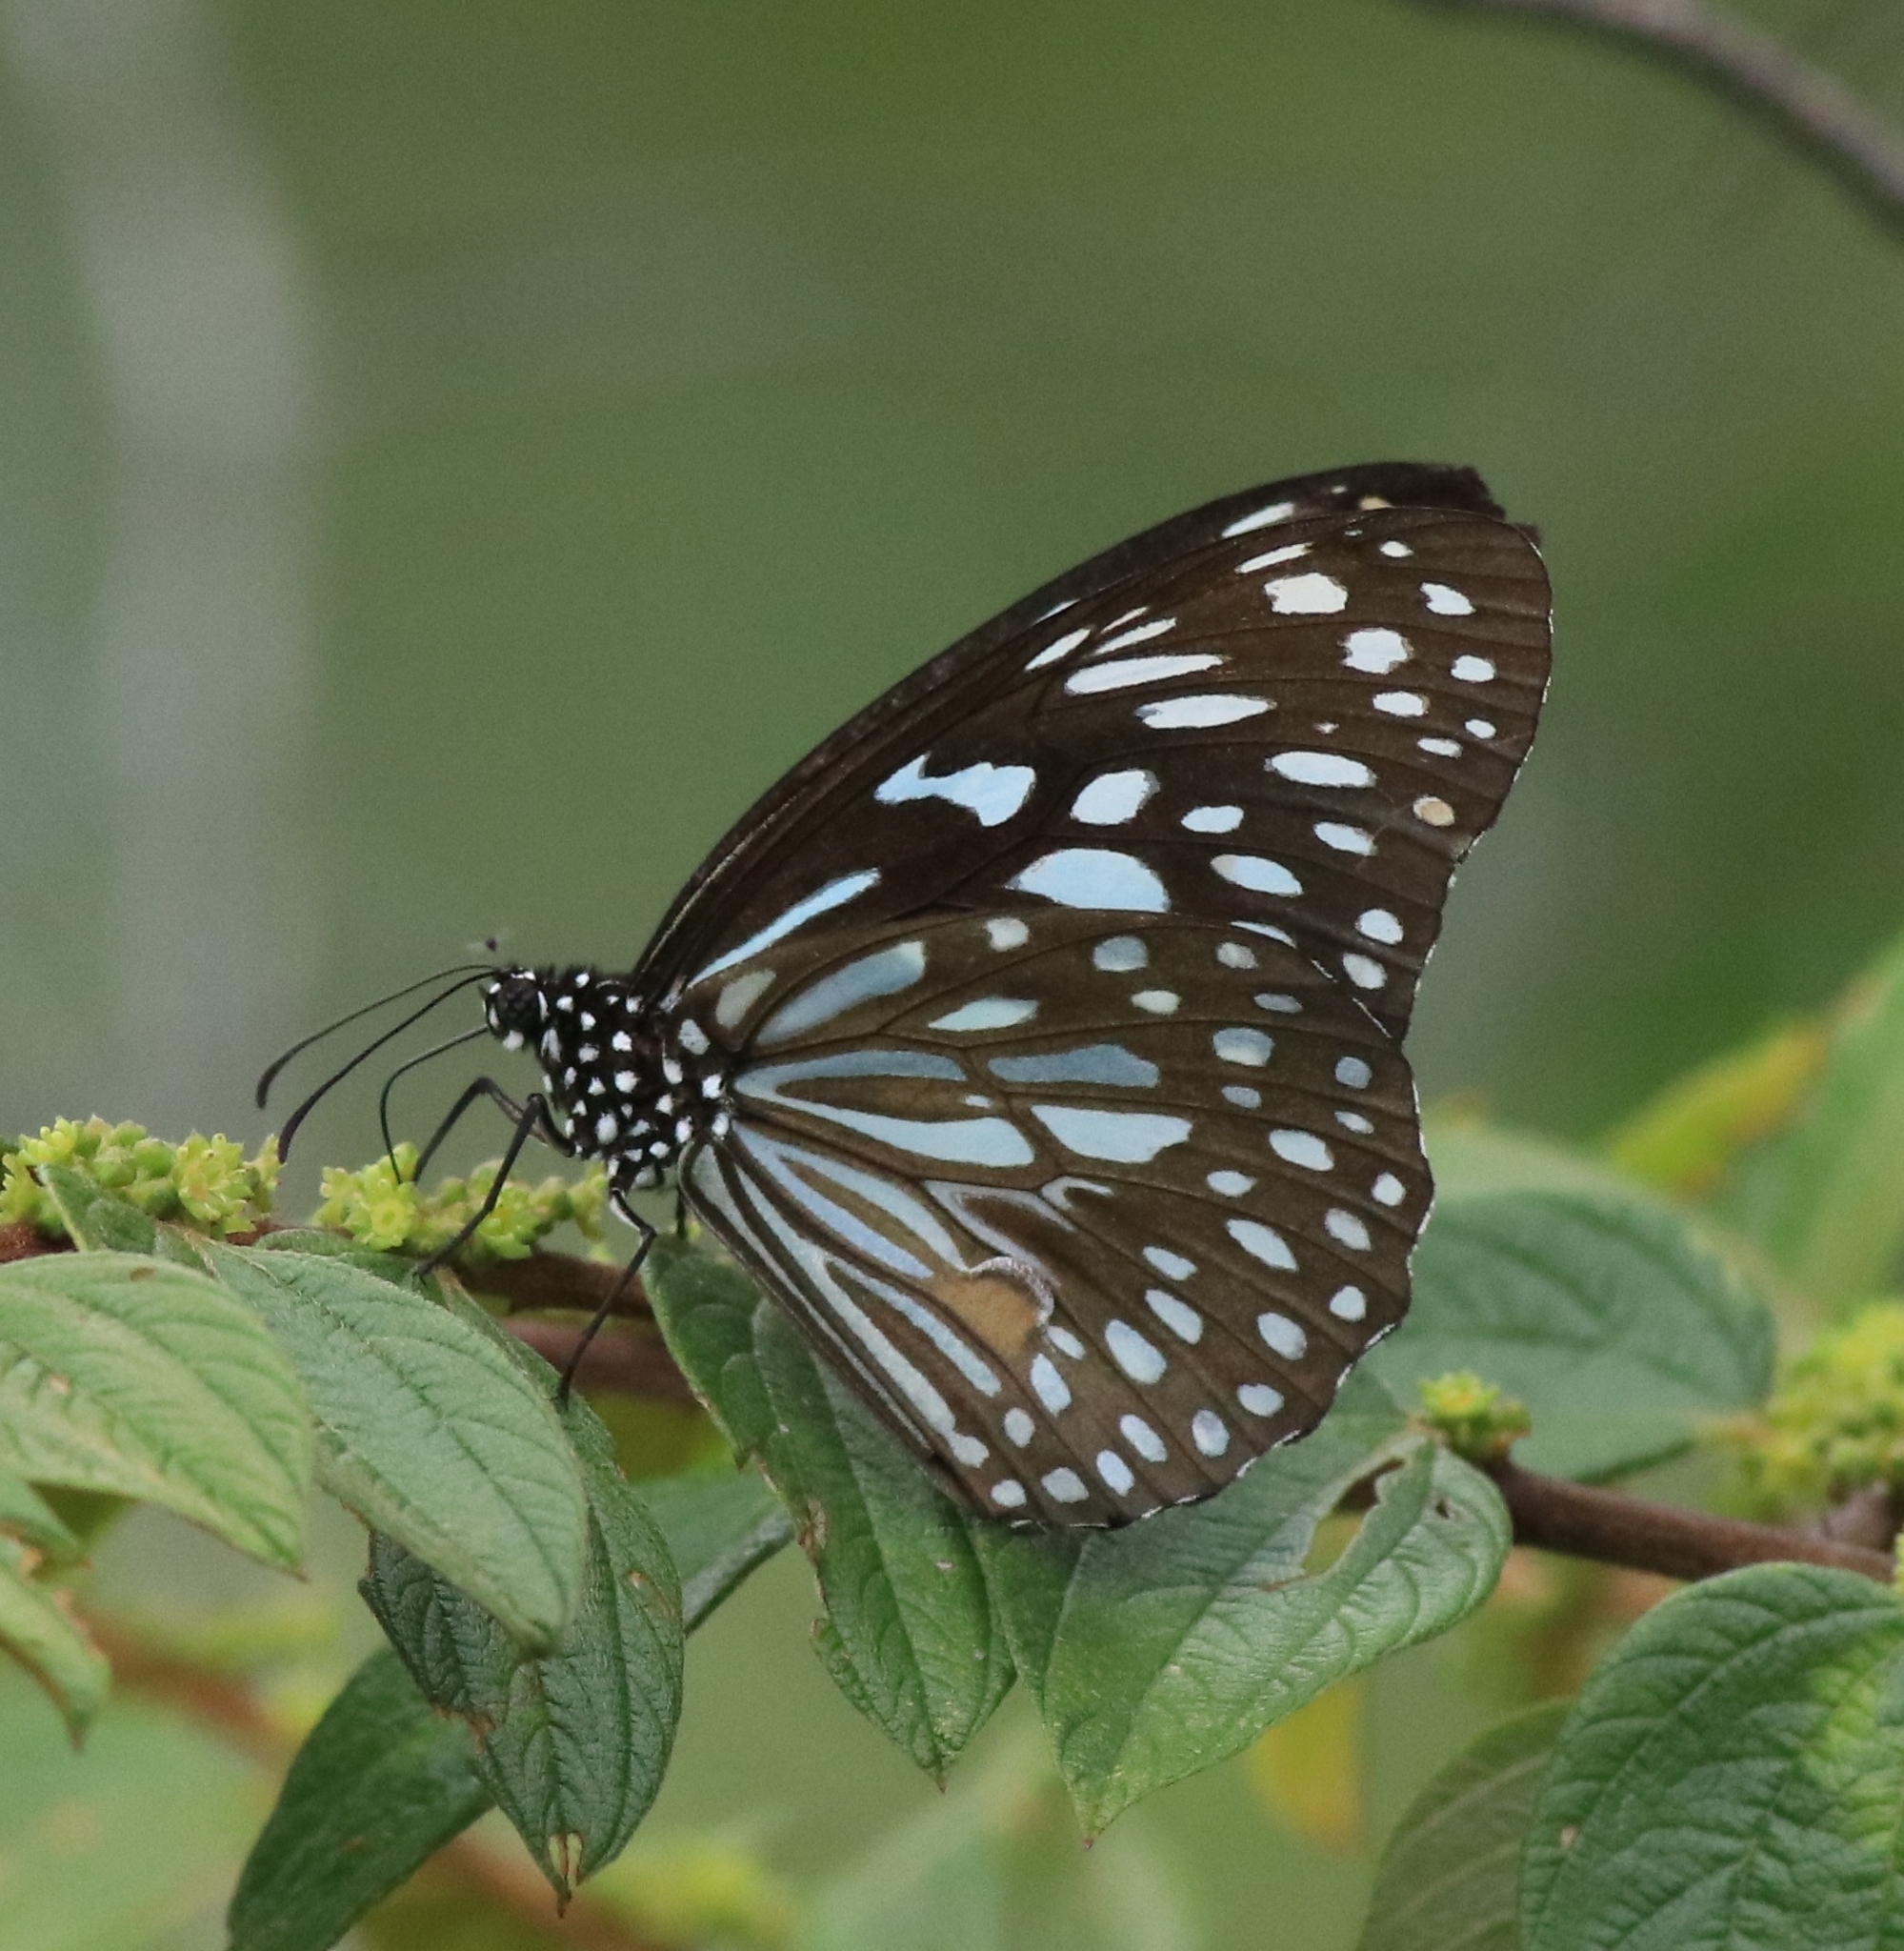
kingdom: Animalia
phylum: Arthropoda
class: Insecta
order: Lepidoptera
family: Nymphalidae
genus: Tirumala
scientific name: Tirumala septentrionis
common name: Dark blue tiger butterfly
